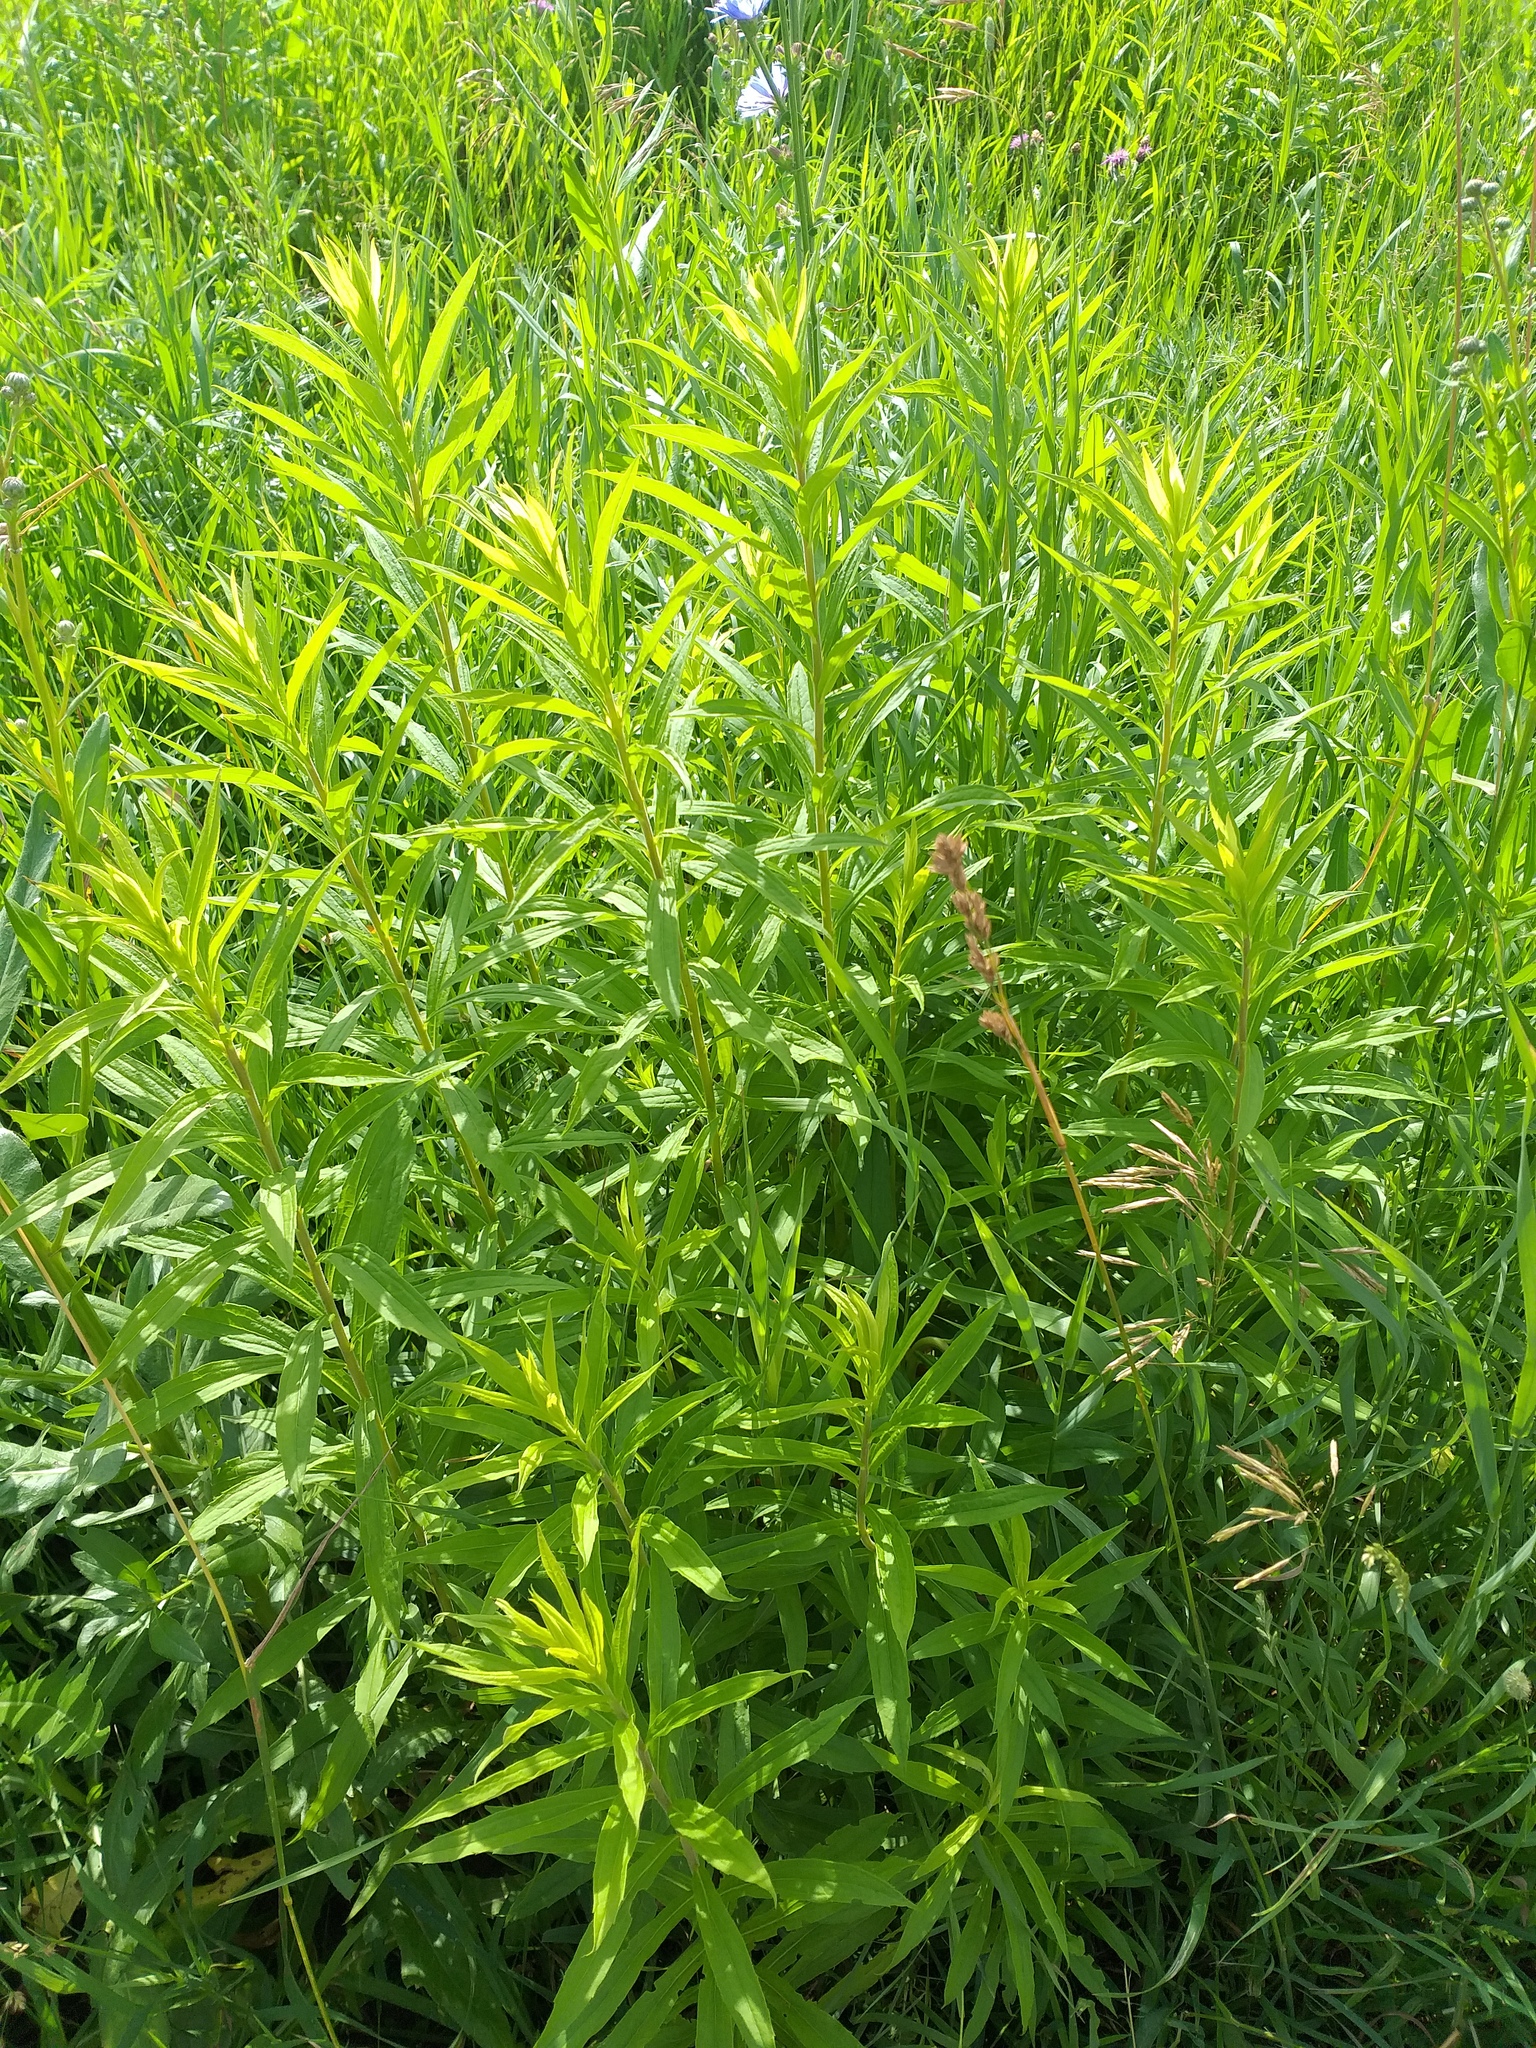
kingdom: Plantae
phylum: Tracheophyta
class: Magnoliopsida
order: Asterales
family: Asteraceae
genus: Solidago
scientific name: Solidago canadensis
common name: Canada goldenrod
